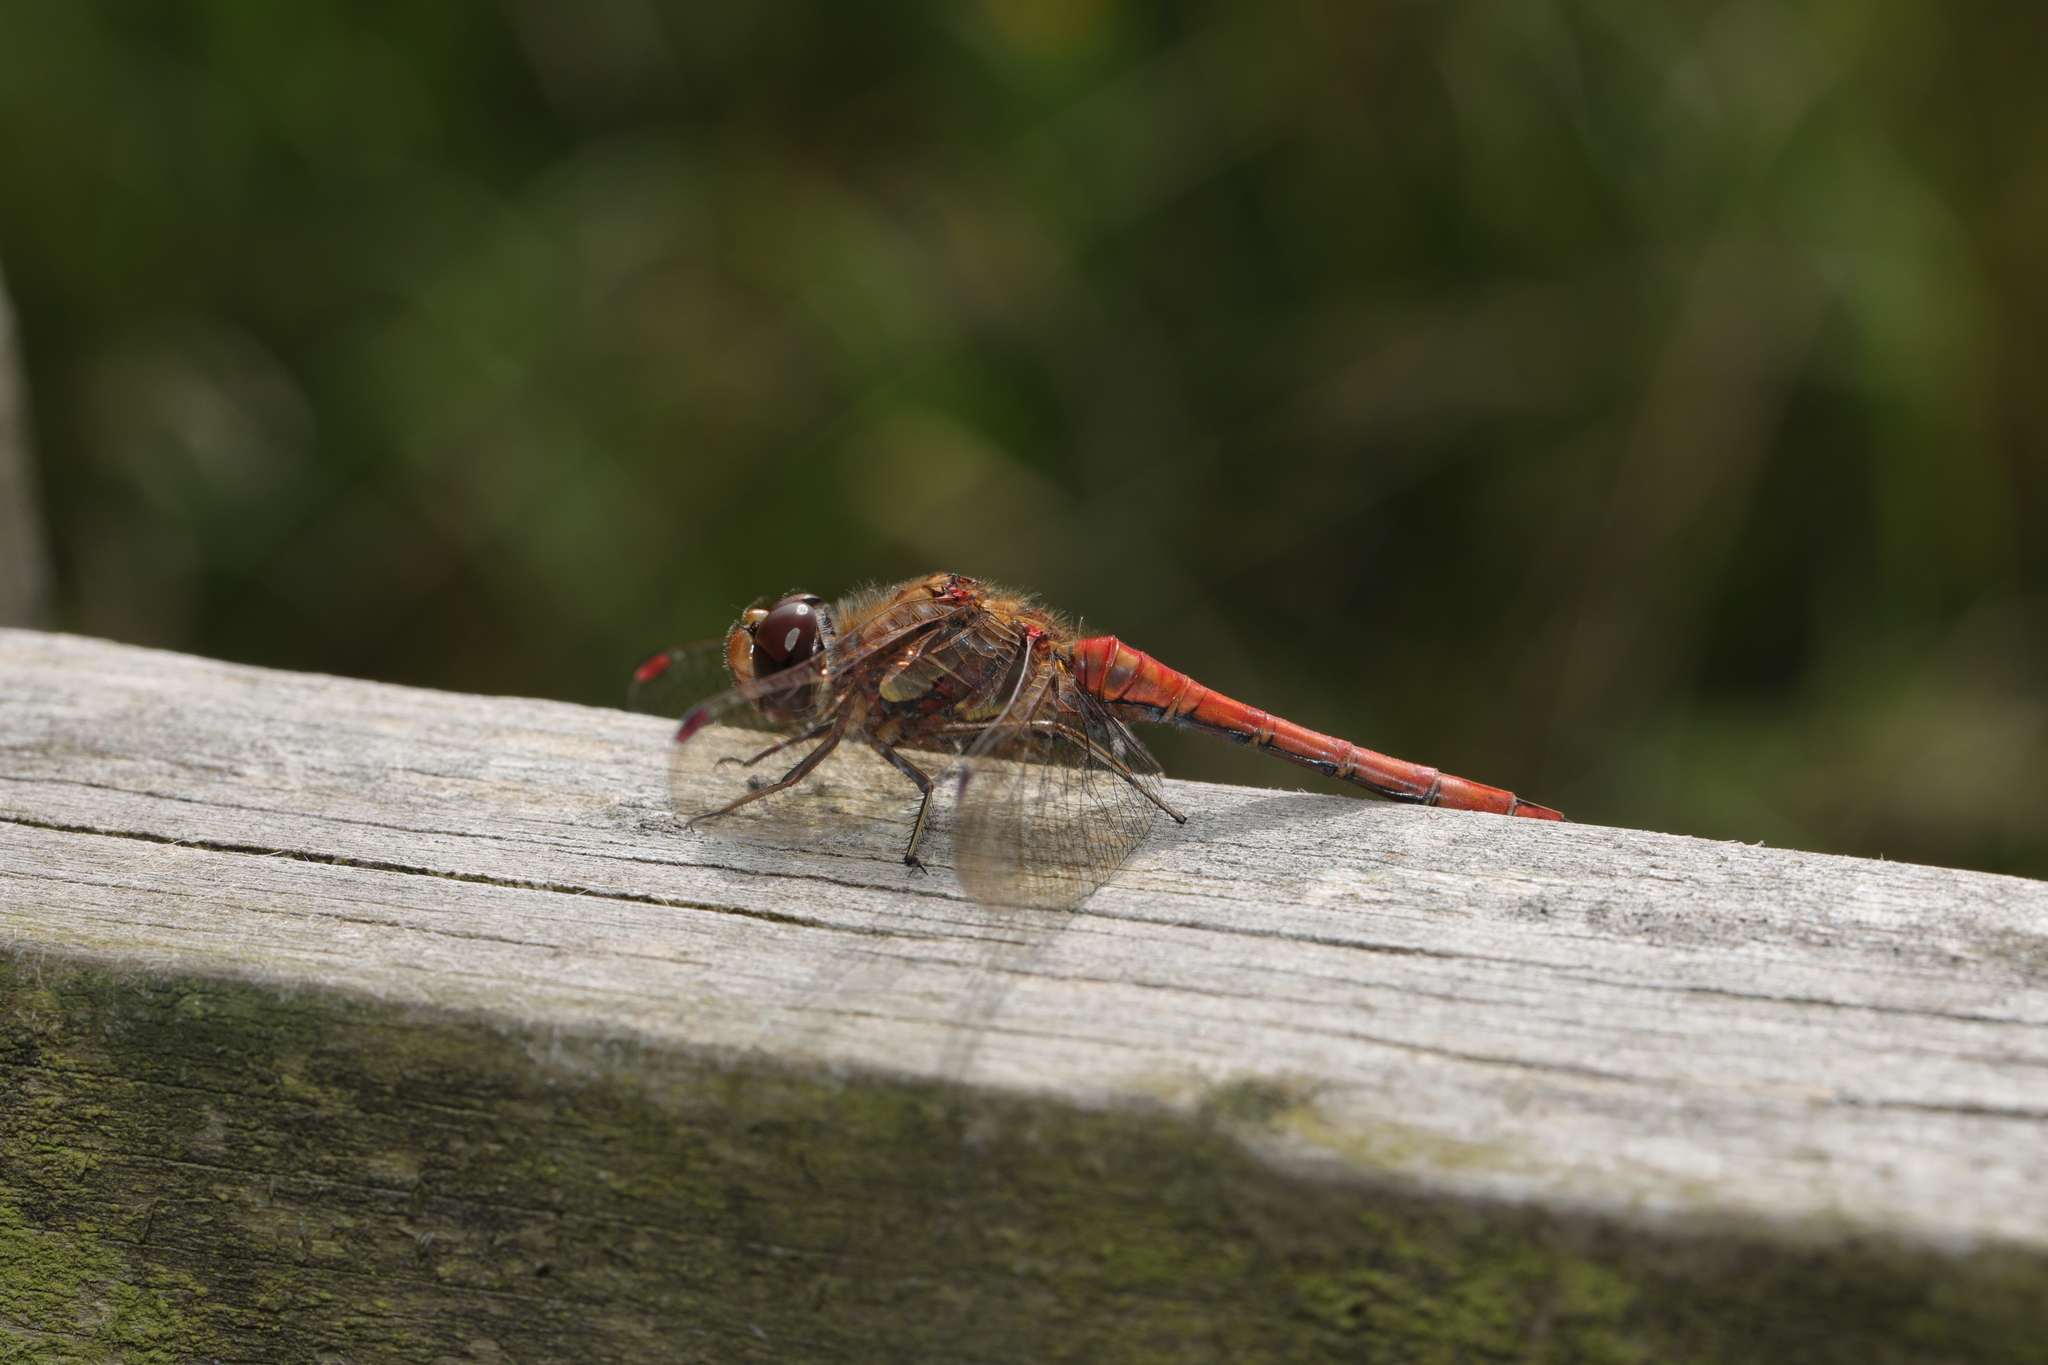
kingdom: Animalia
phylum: Arthropoda
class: Insecta
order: Odonata
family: Libellulidae
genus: Sympetrum
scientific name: Sympetrum striolatum
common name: Common darter
